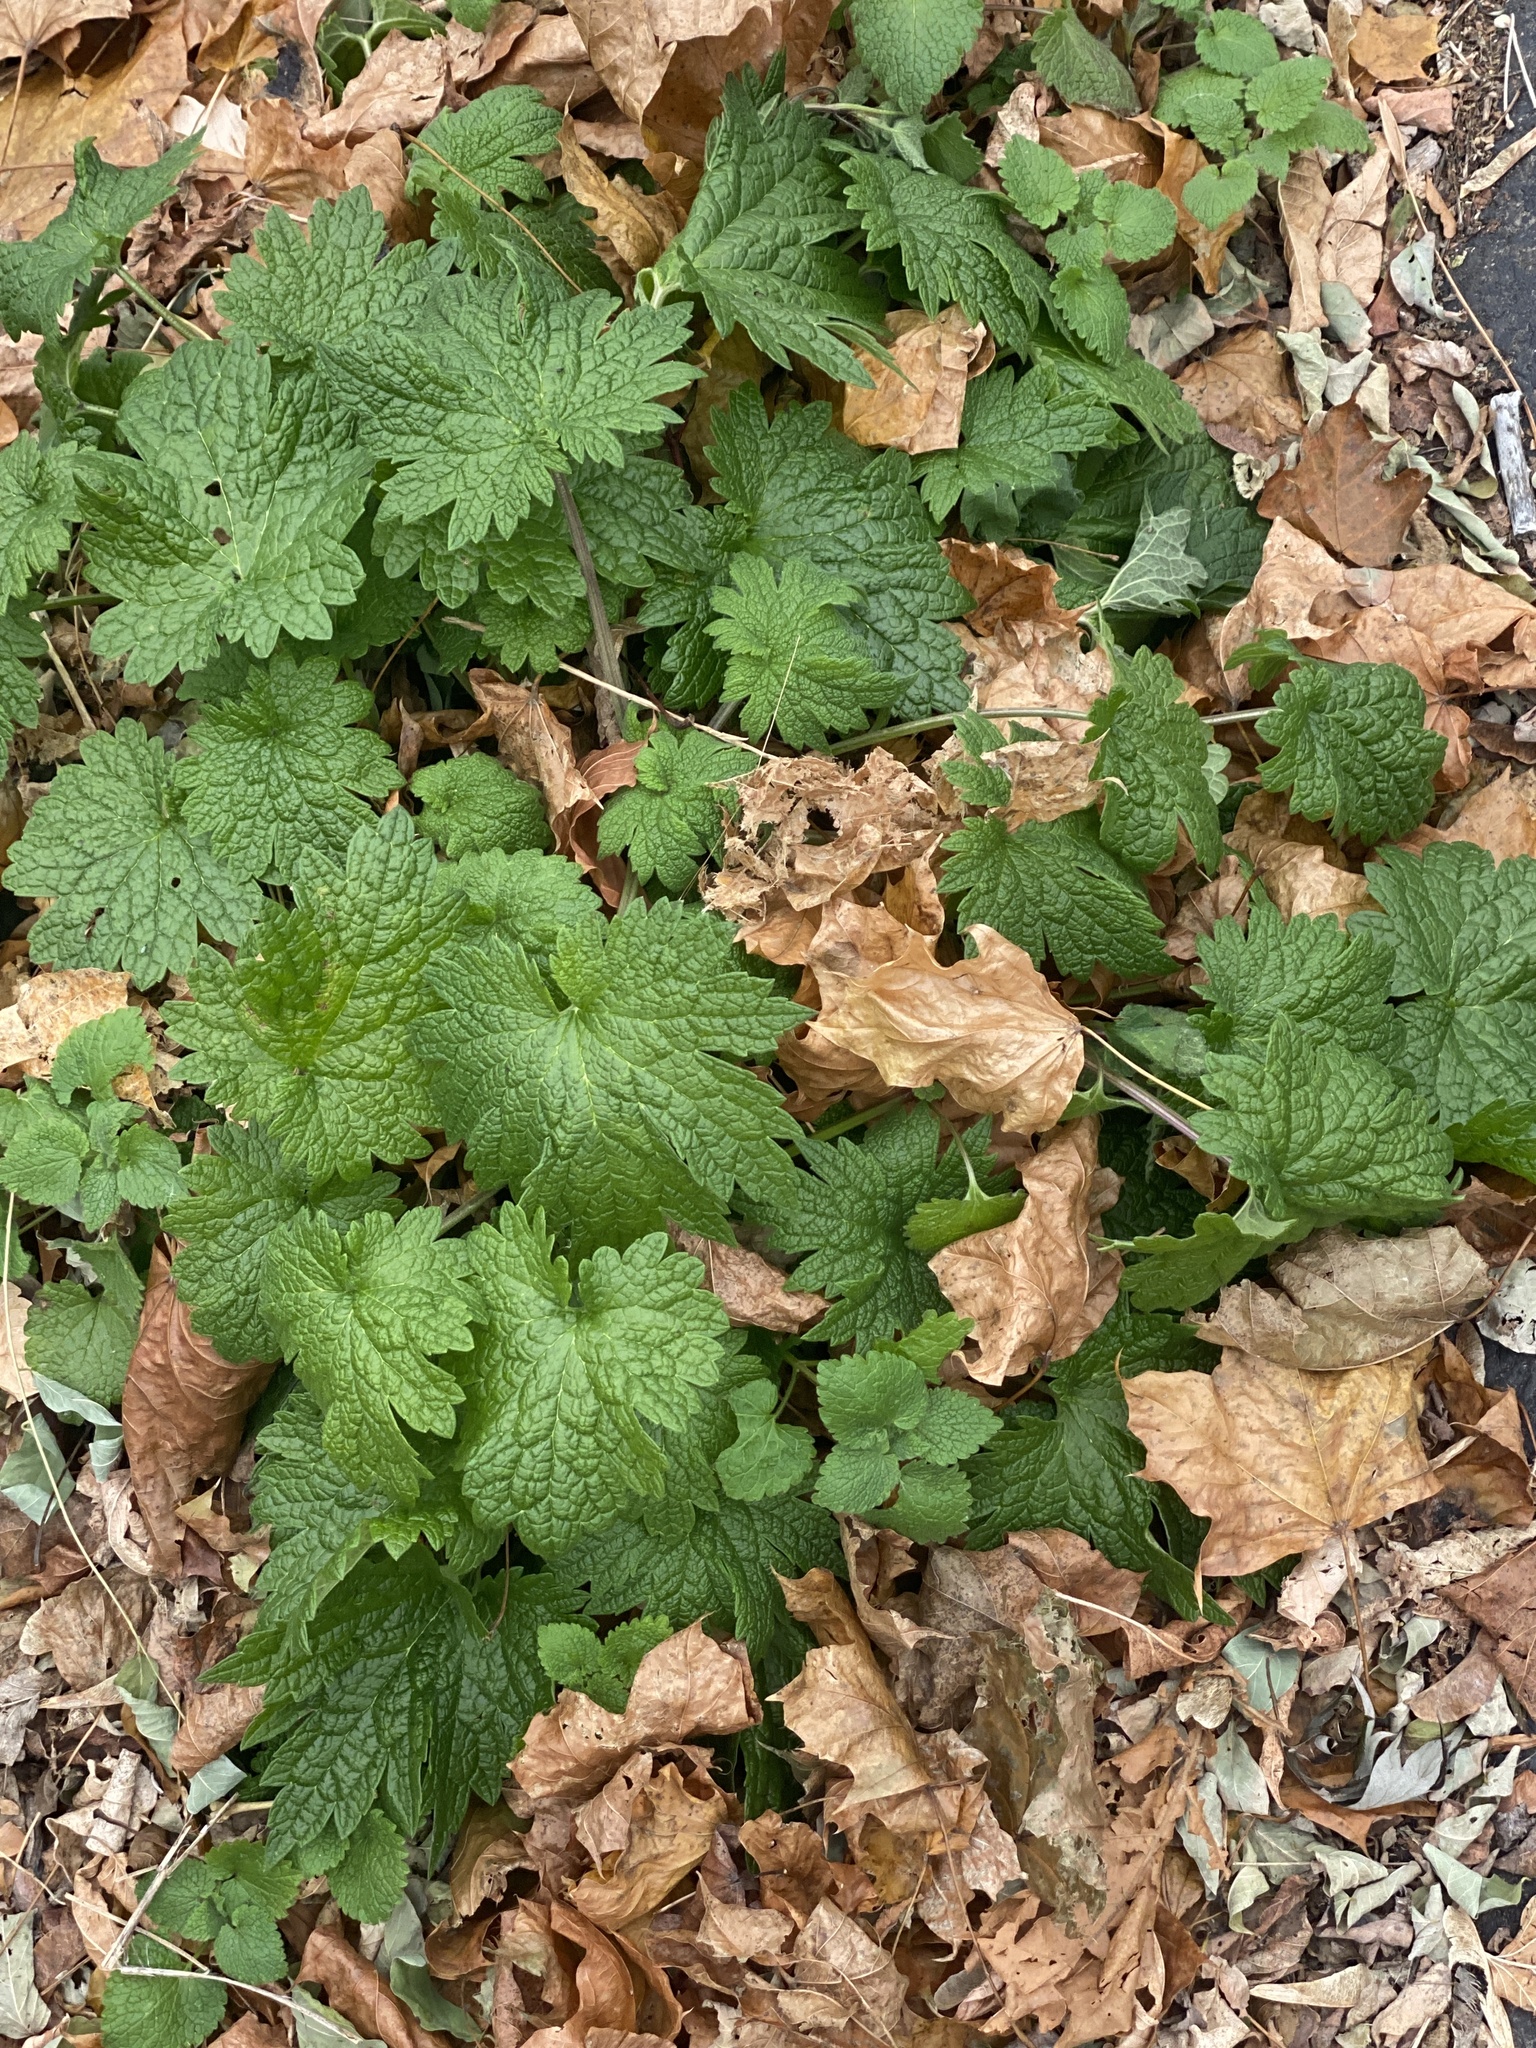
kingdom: Plantae
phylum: Tracheophyta
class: Magnoliopsida
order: Lamiales
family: Lamiaceae
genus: Leonurus
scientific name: Leonurus cardiaca
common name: Motherwort
